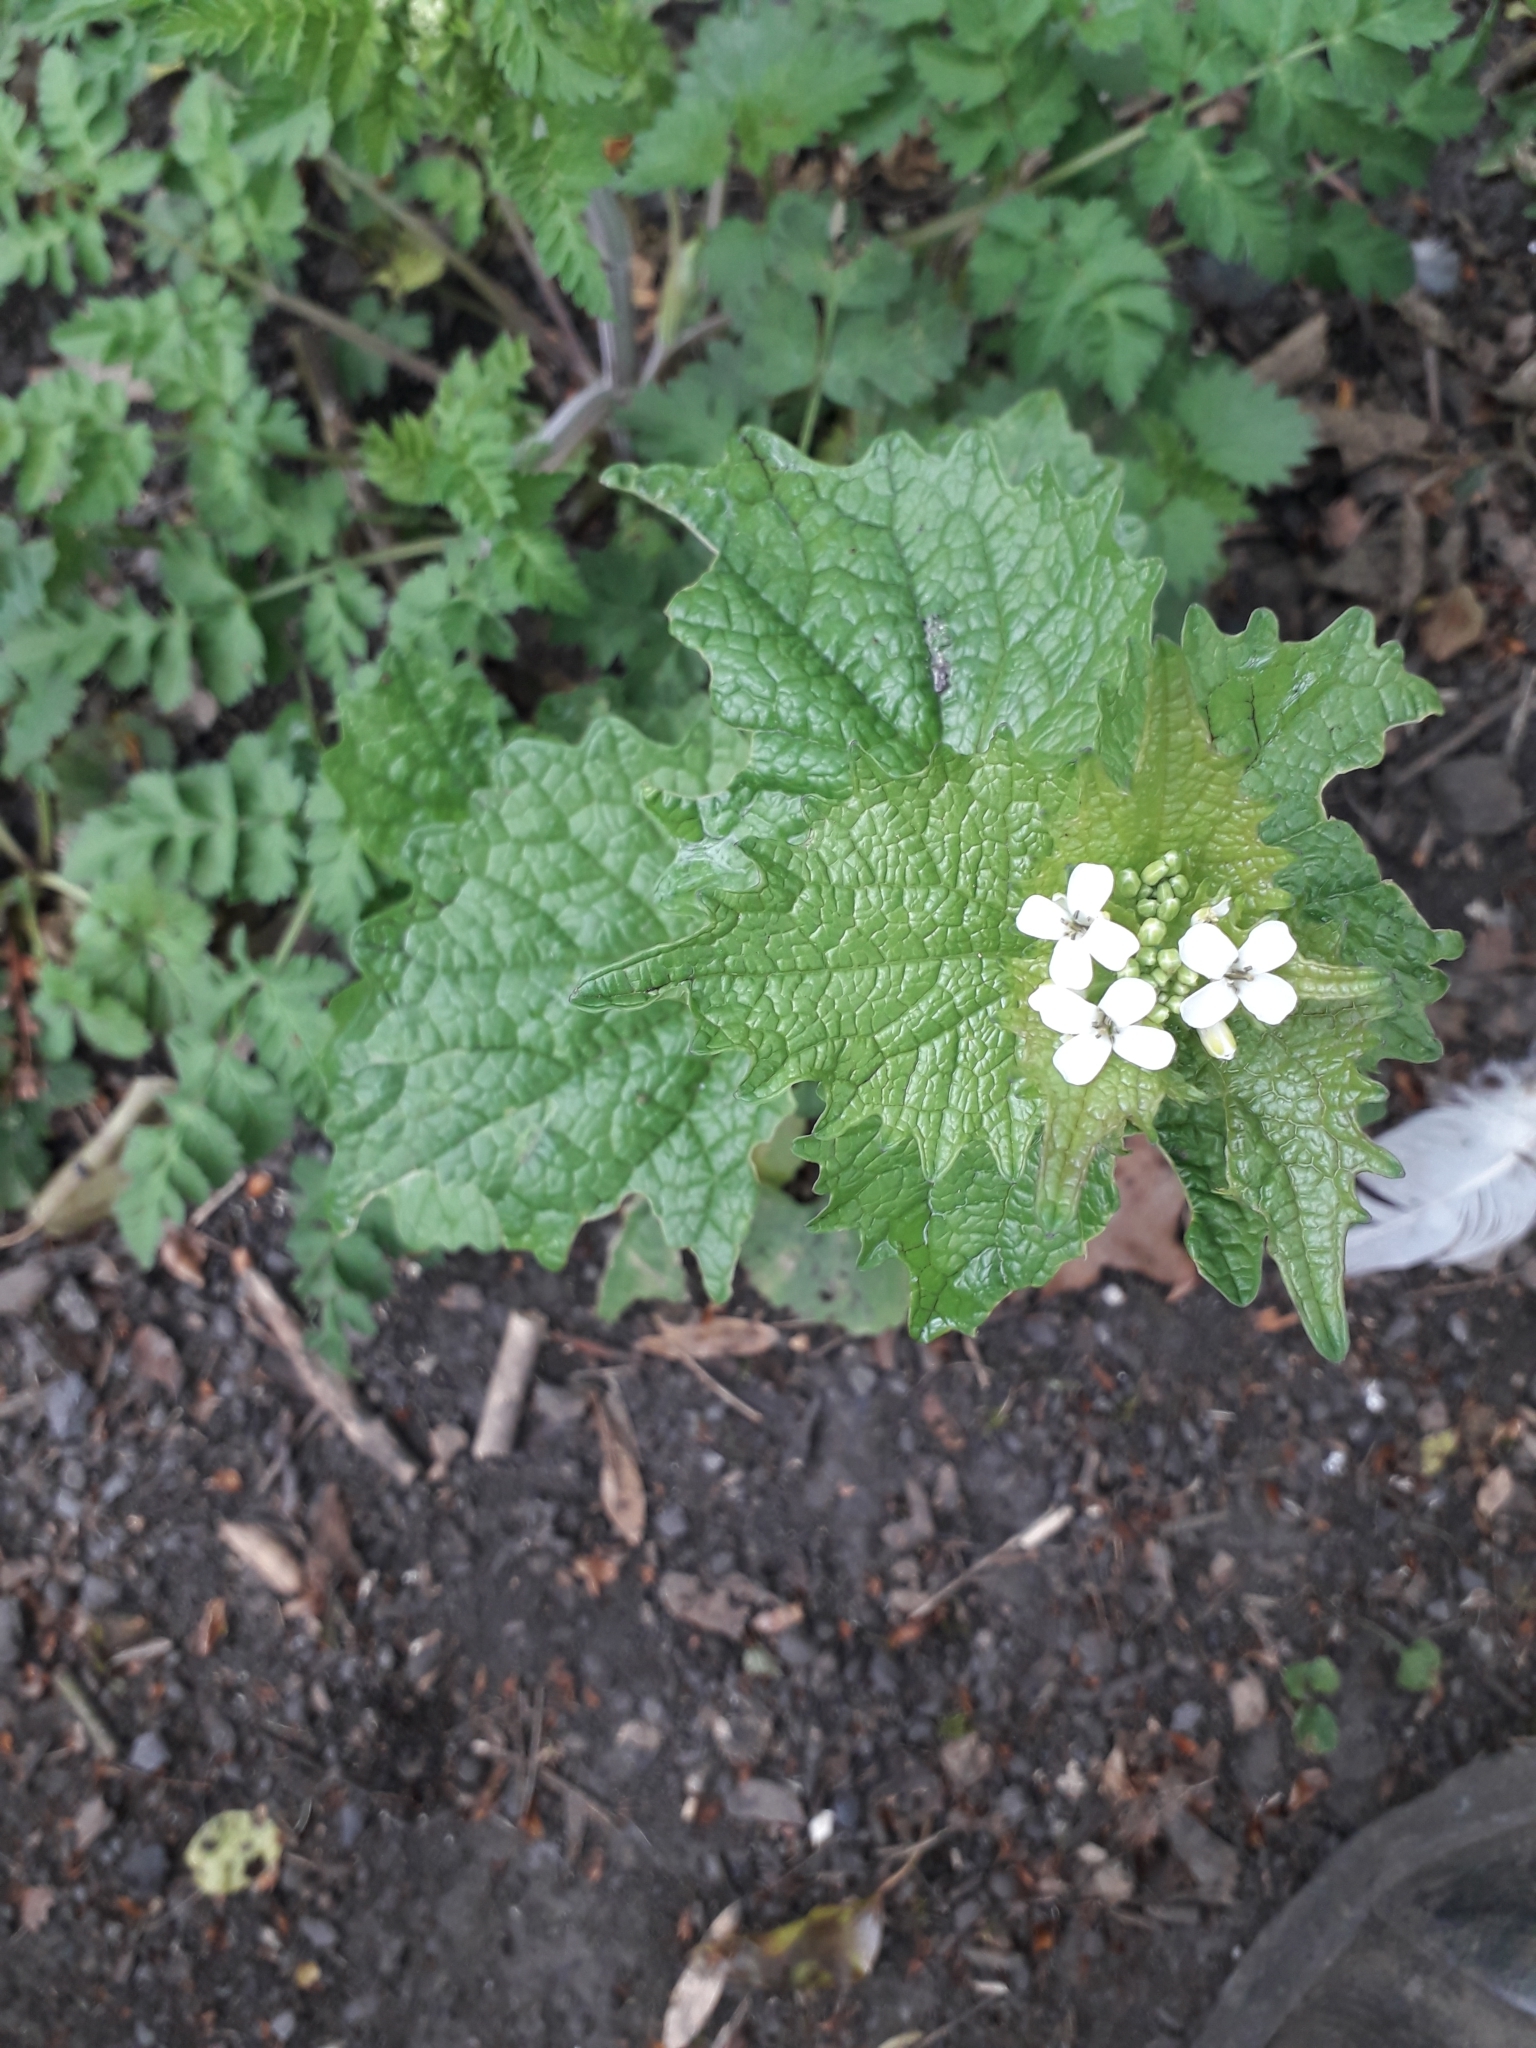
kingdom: Plantae
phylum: Tracheophyta
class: Magnoliopsida
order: Brassicales
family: Brassicaceae
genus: Alliaria
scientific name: Alliaria petiolata
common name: Garlic mustard
